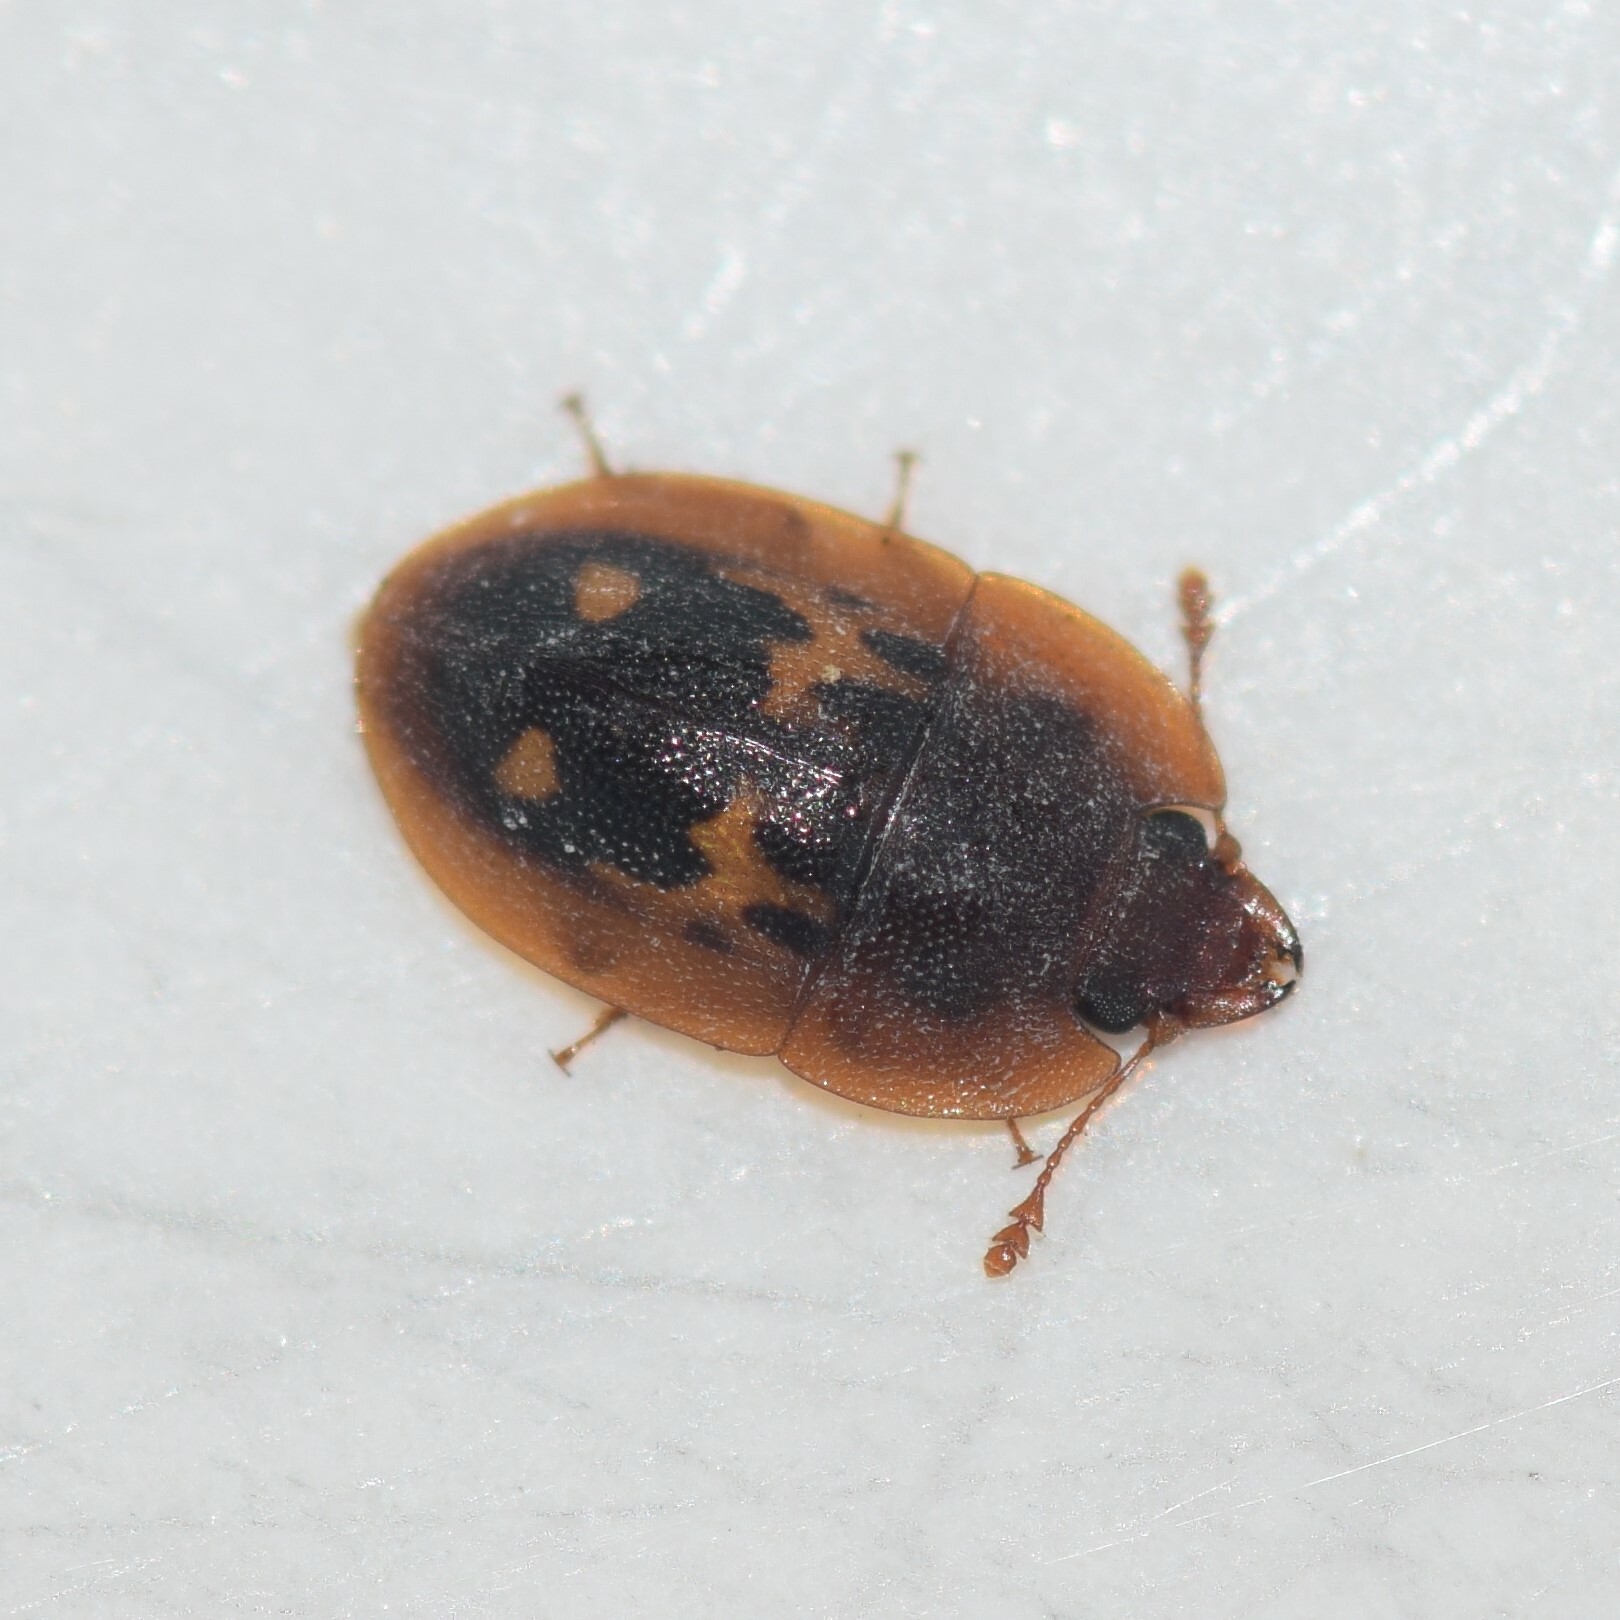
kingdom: Animalia
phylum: Arthropoda
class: Insecta
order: Coleoptera
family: Nitidulidae
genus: Prometopia
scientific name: Prometopia sexmaculata
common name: Six-spotted sap-feeding beetle
